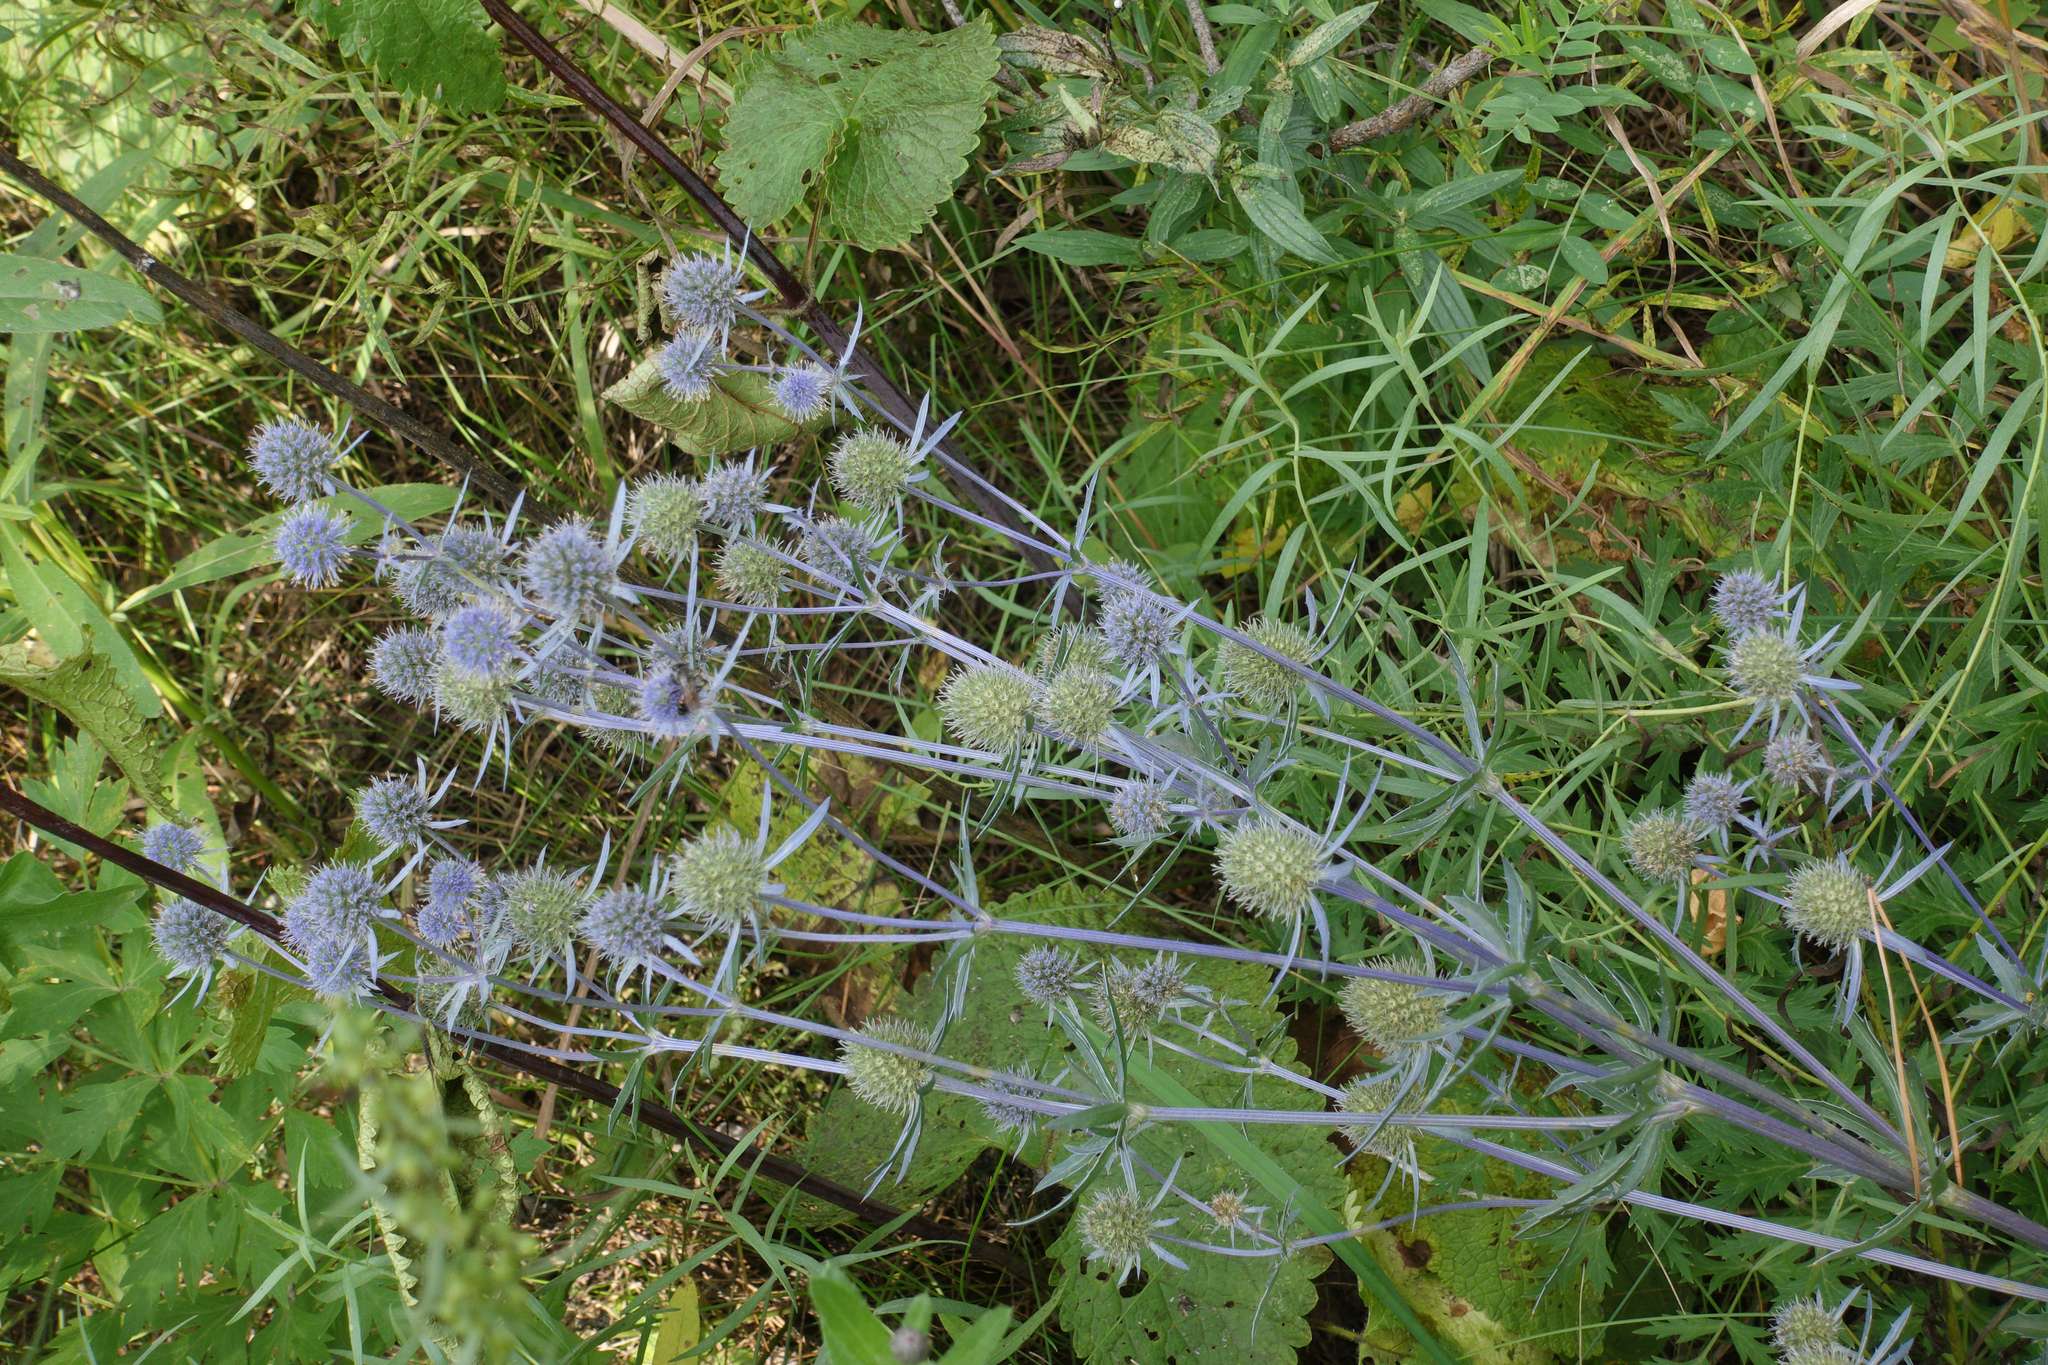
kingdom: Plantae
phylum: Tracheophyta
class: Magnoliopsida
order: Apiales
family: Apiaceae
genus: Eryngium
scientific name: Eryngium planum
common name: Blue eryngo
